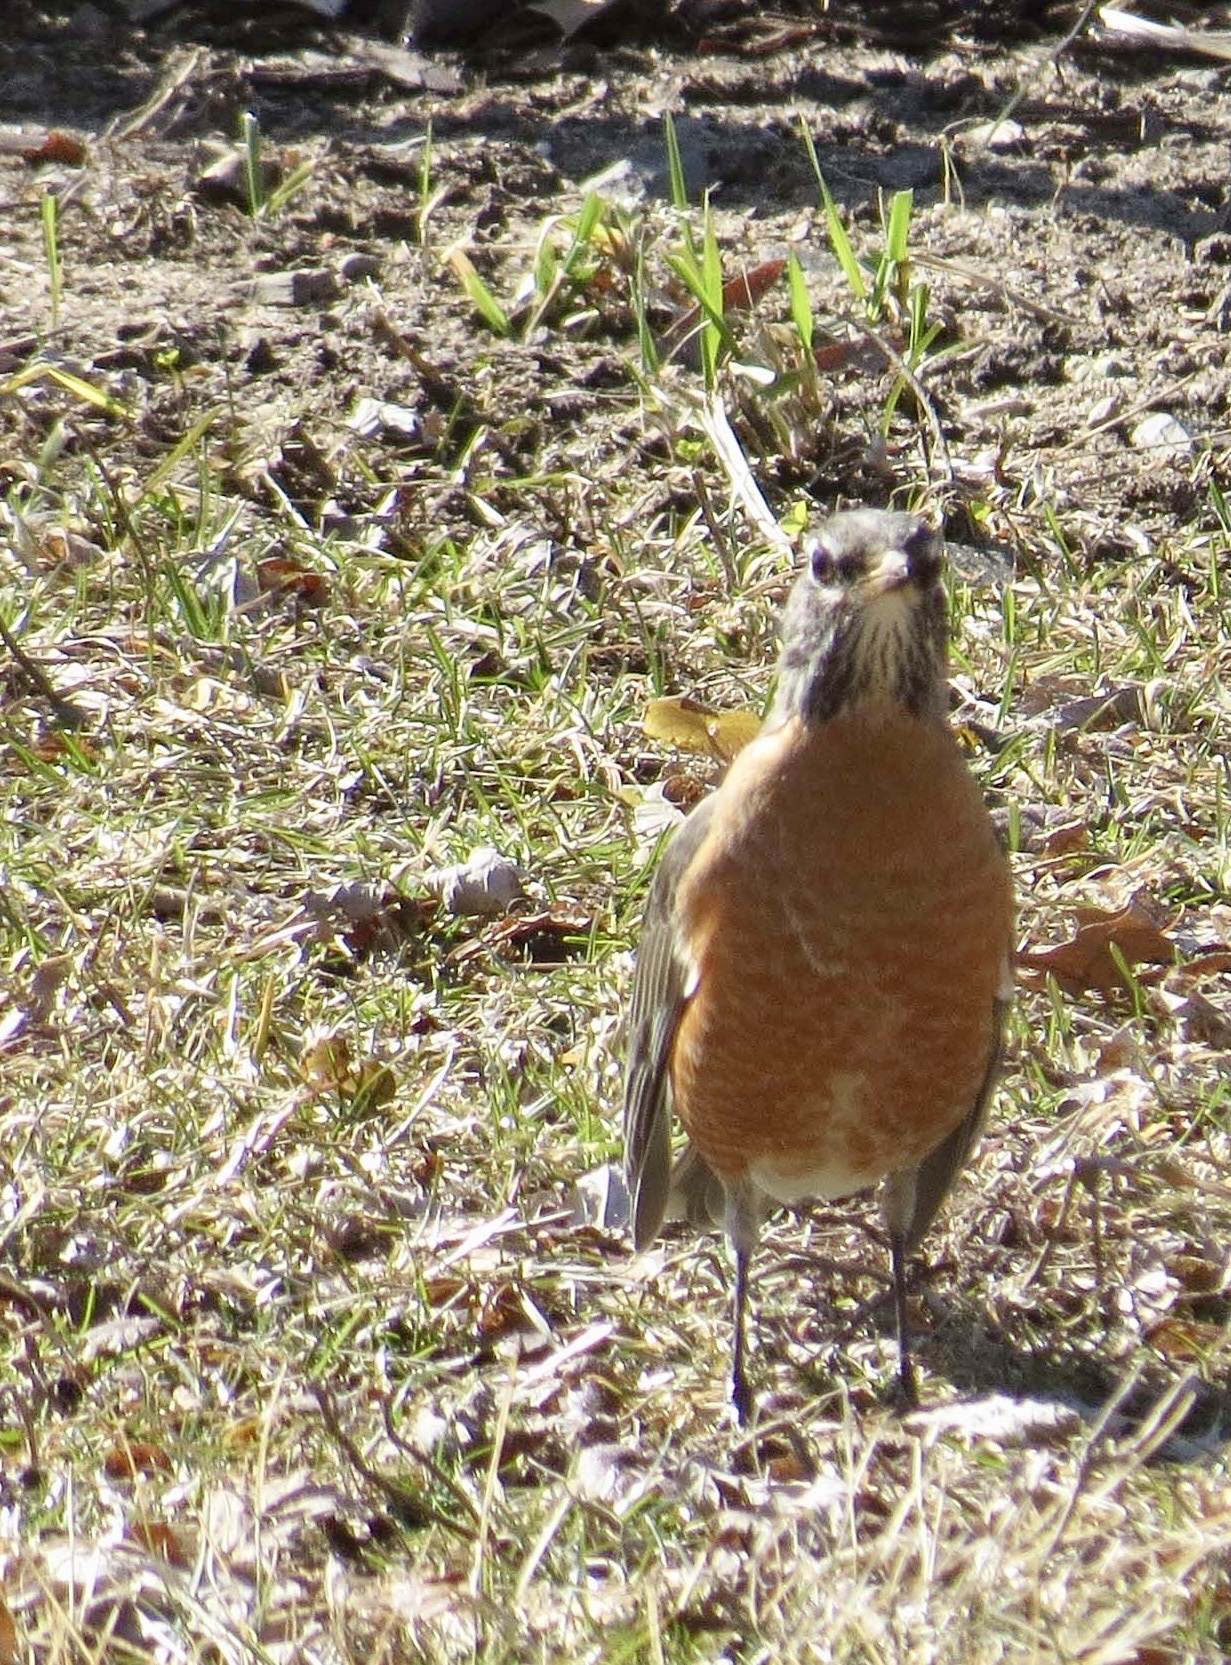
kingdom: Animalia
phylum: Chordata
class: Aves
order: Passeriformes
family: Turdidae
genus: Turdus
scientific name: Turdus migratorius
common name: American robin
